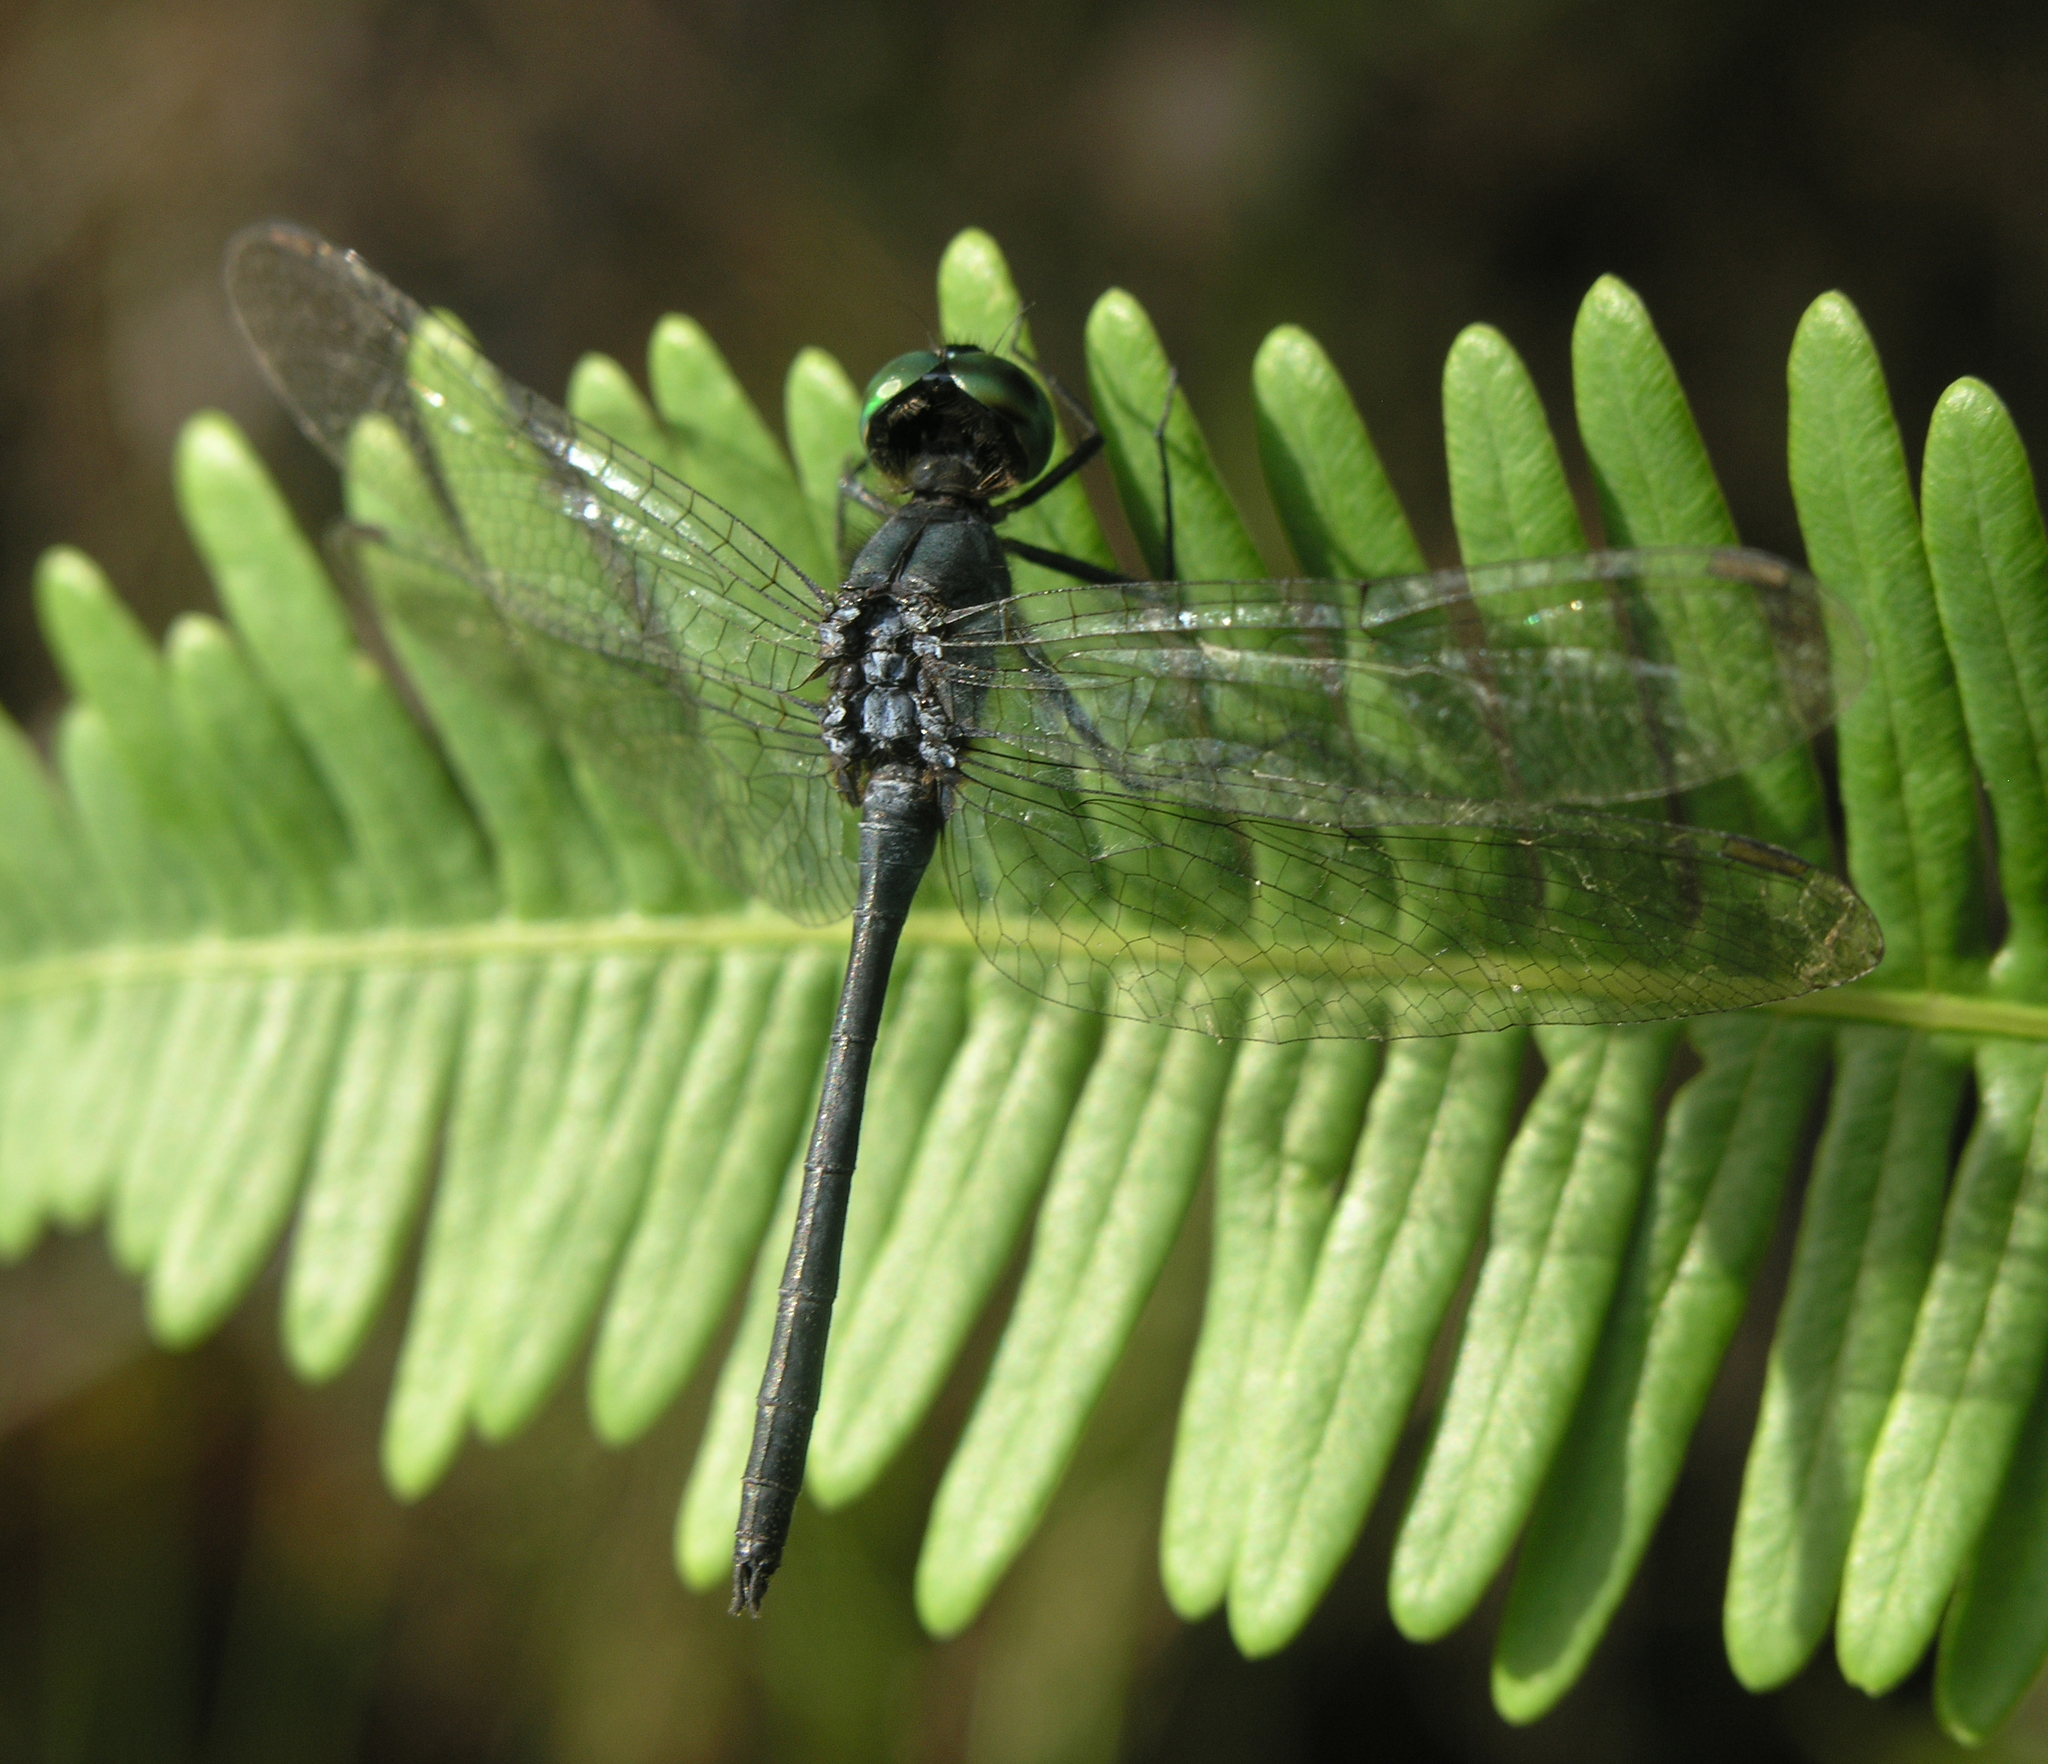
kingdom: Animalia
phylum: Arthropoda
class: Insecta
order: Odonata
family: Libellulidae
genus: Chalybeothemis
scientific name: Chalybeothemis fluviatilis
